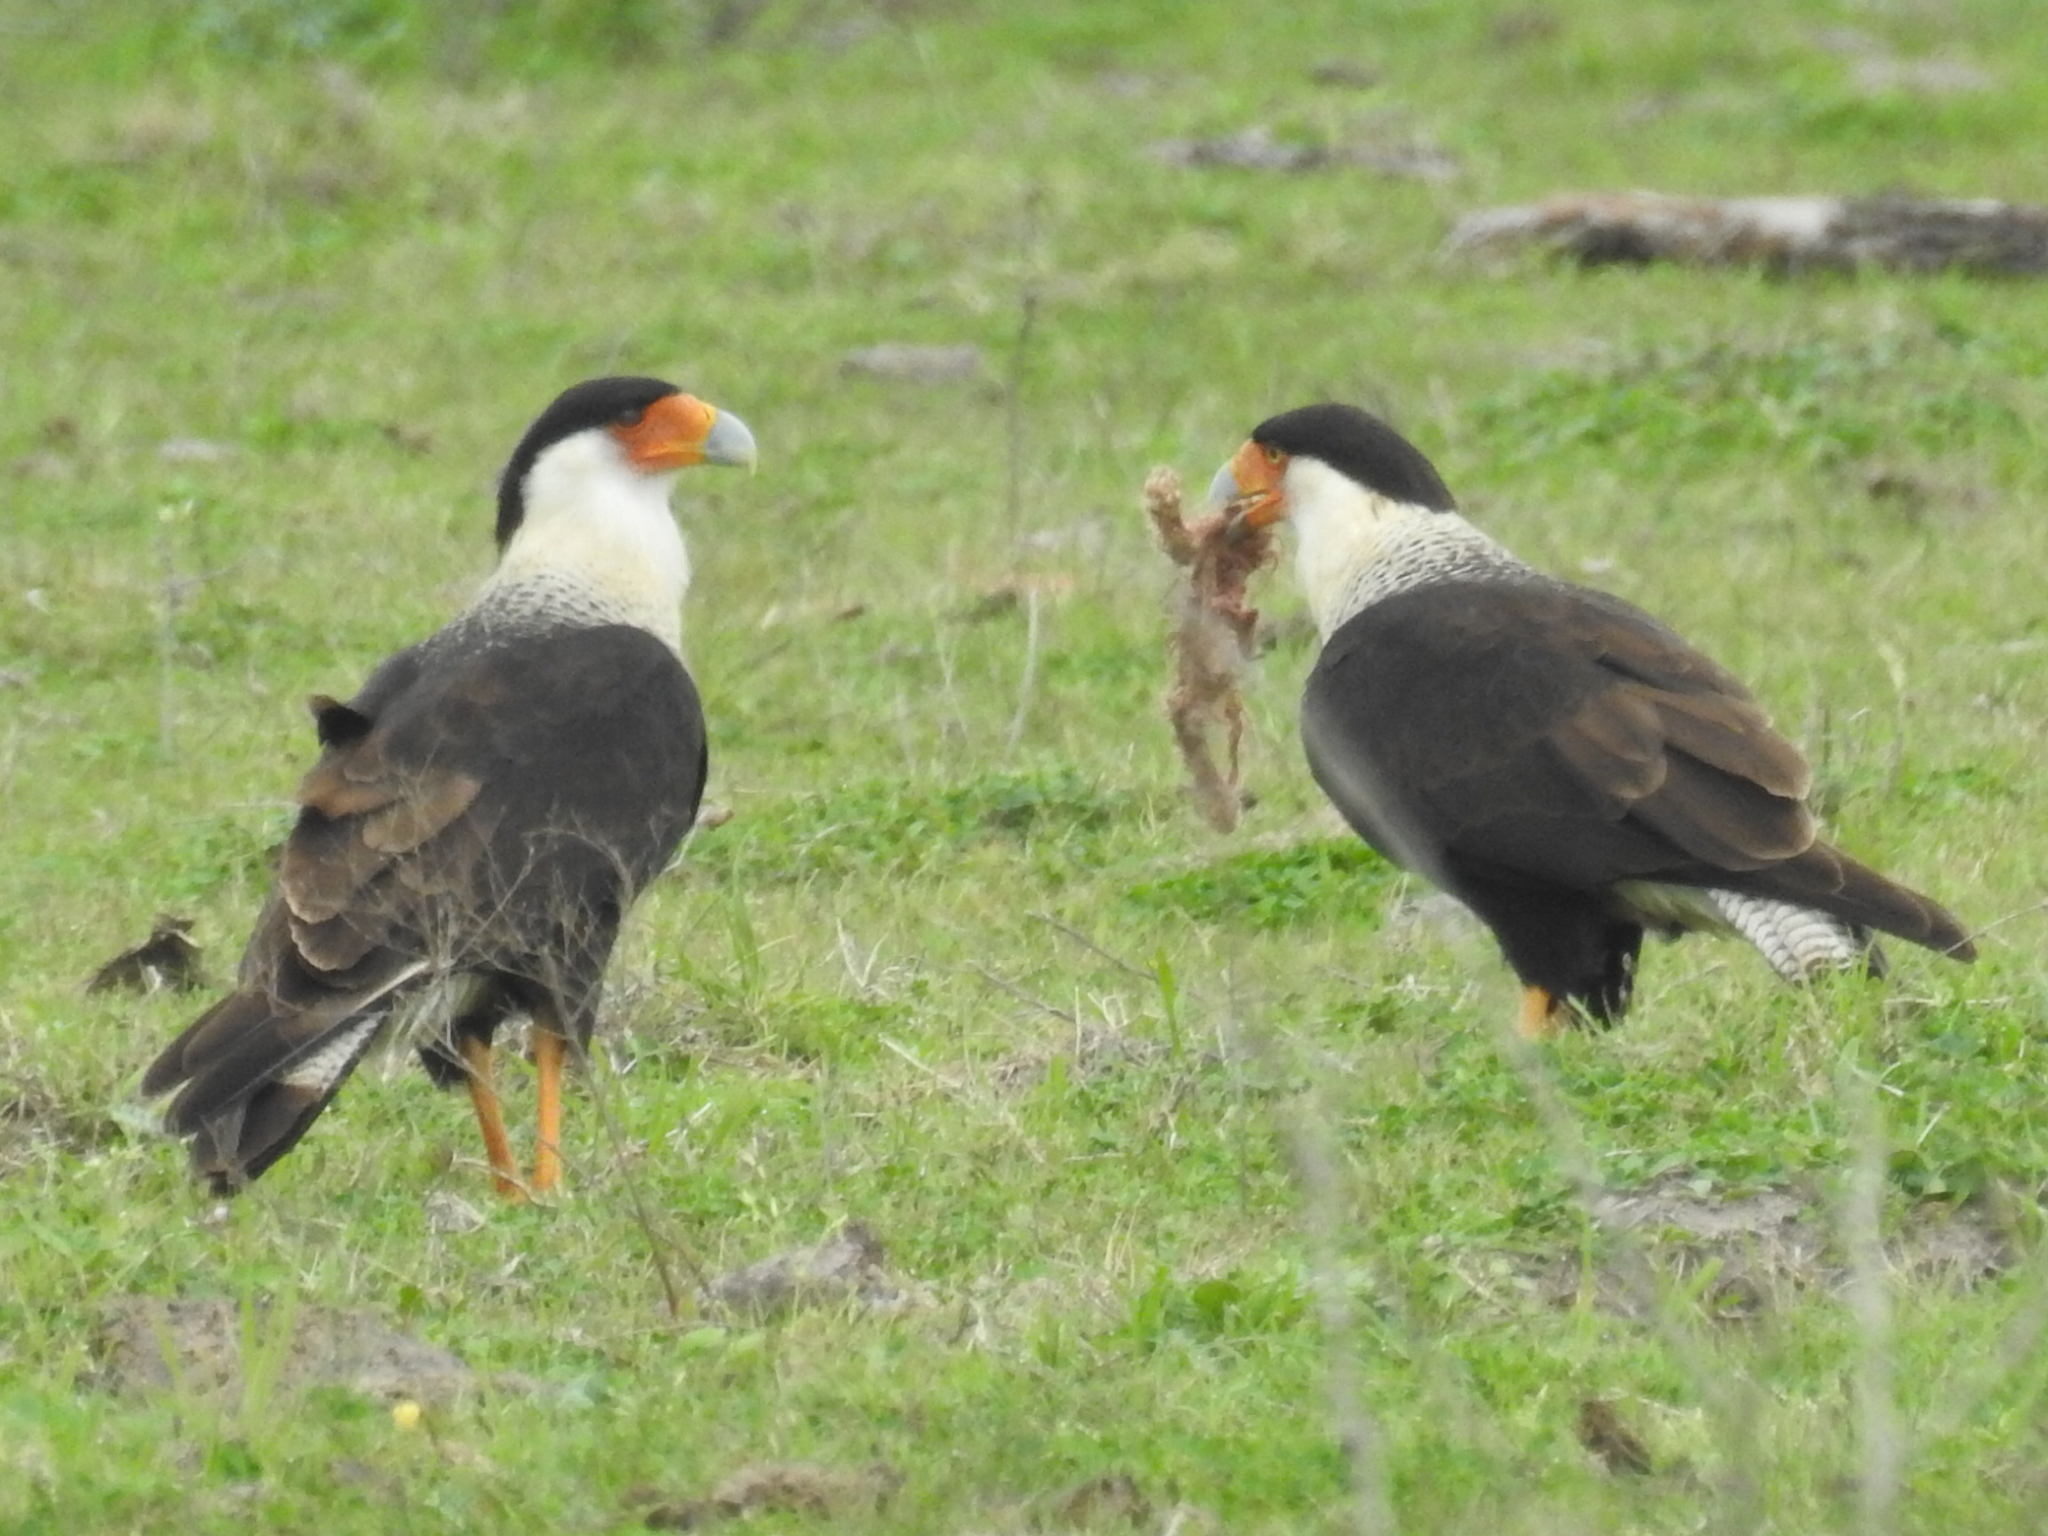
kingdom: Animalia
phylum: Chordata
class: Aves
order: Falconiformes
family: Falconidae
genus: Caracara
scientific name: Caracara plancus
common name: Southern caracara
